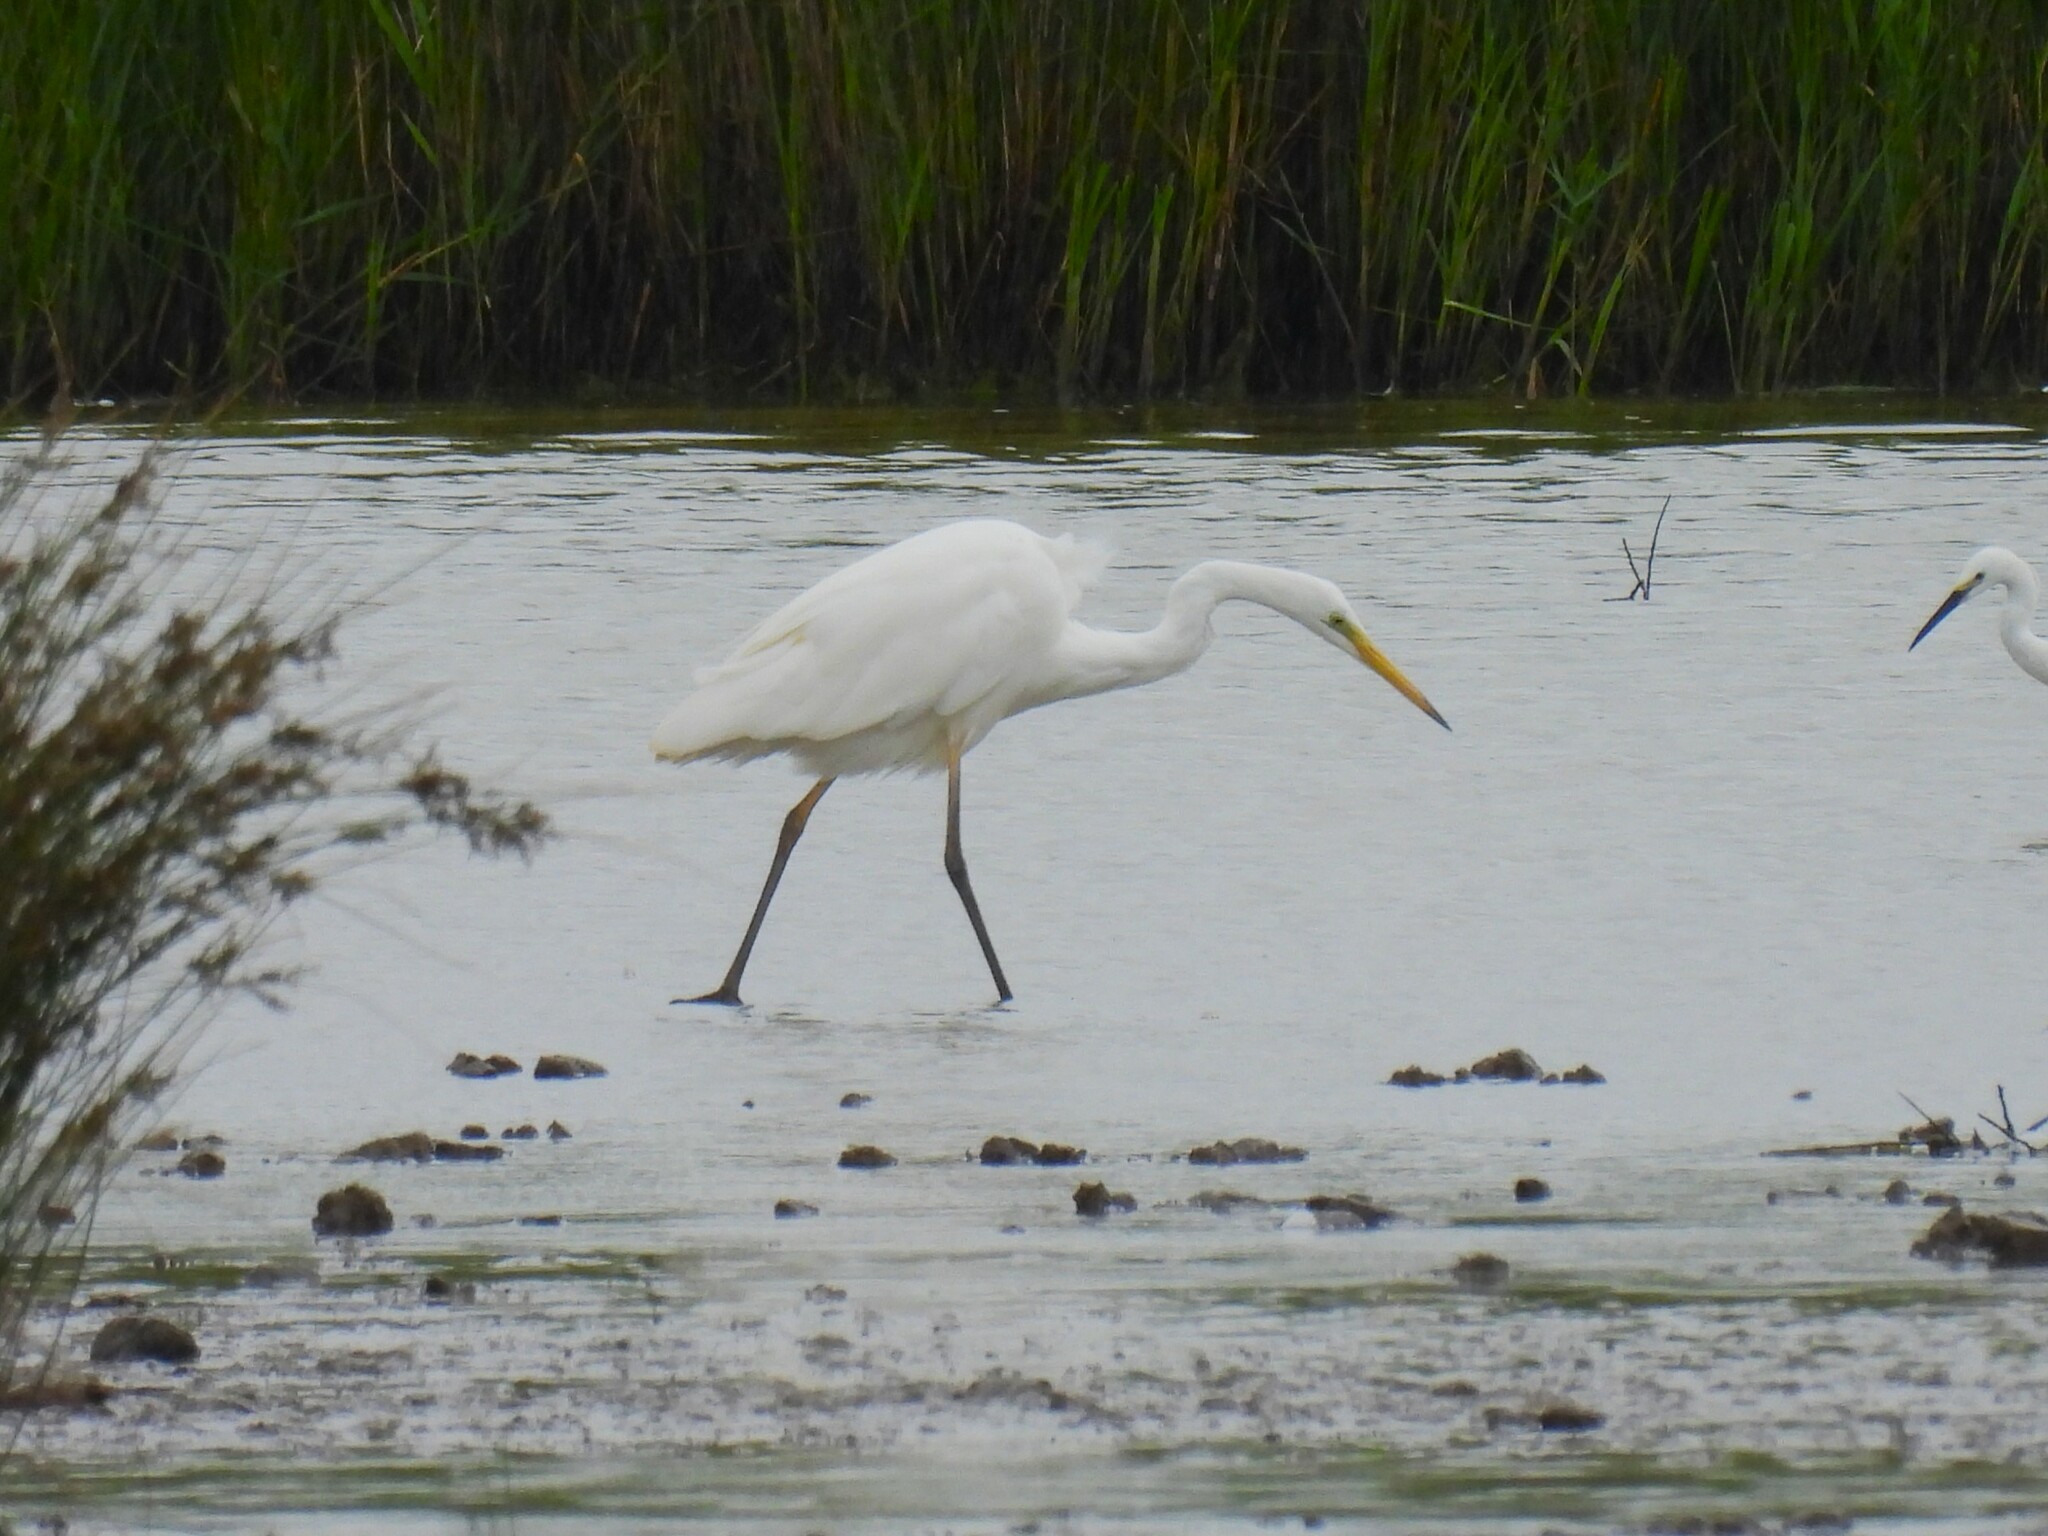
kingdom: Animalia
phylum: Chordata
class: Aves
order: Pelecaniformes
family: Ardeidae
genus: Ardea
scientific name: Ardea alba
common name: Great egret
